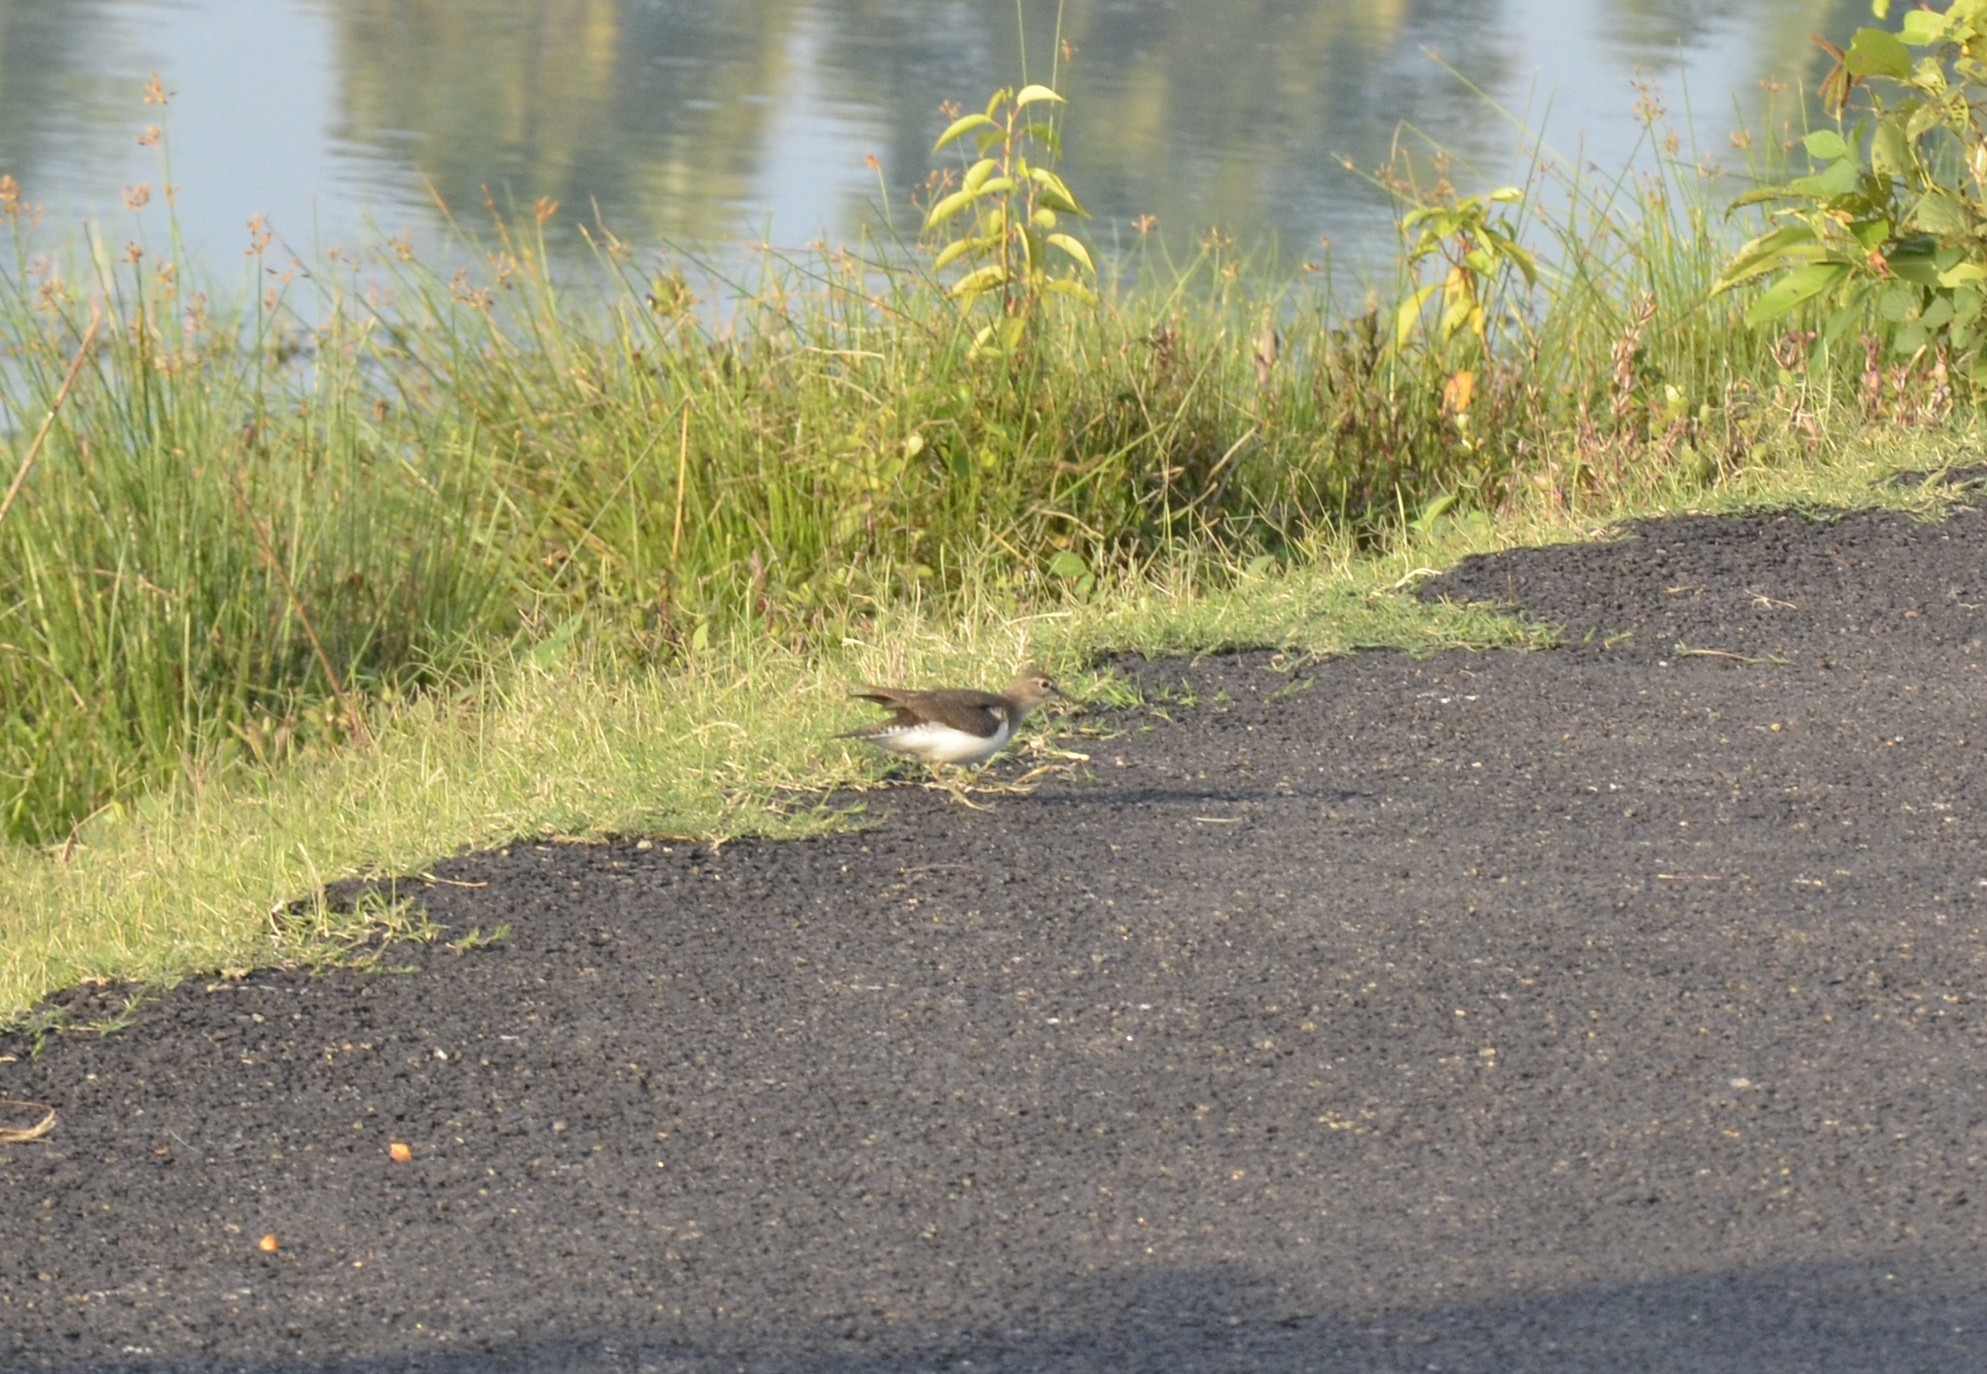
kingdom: Animalia
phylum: Chordata
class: Aves
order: Charadriiformes
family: Scolopacidae
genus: Actitis
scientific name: Actitis hypoleucos
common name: Common sandpiper
